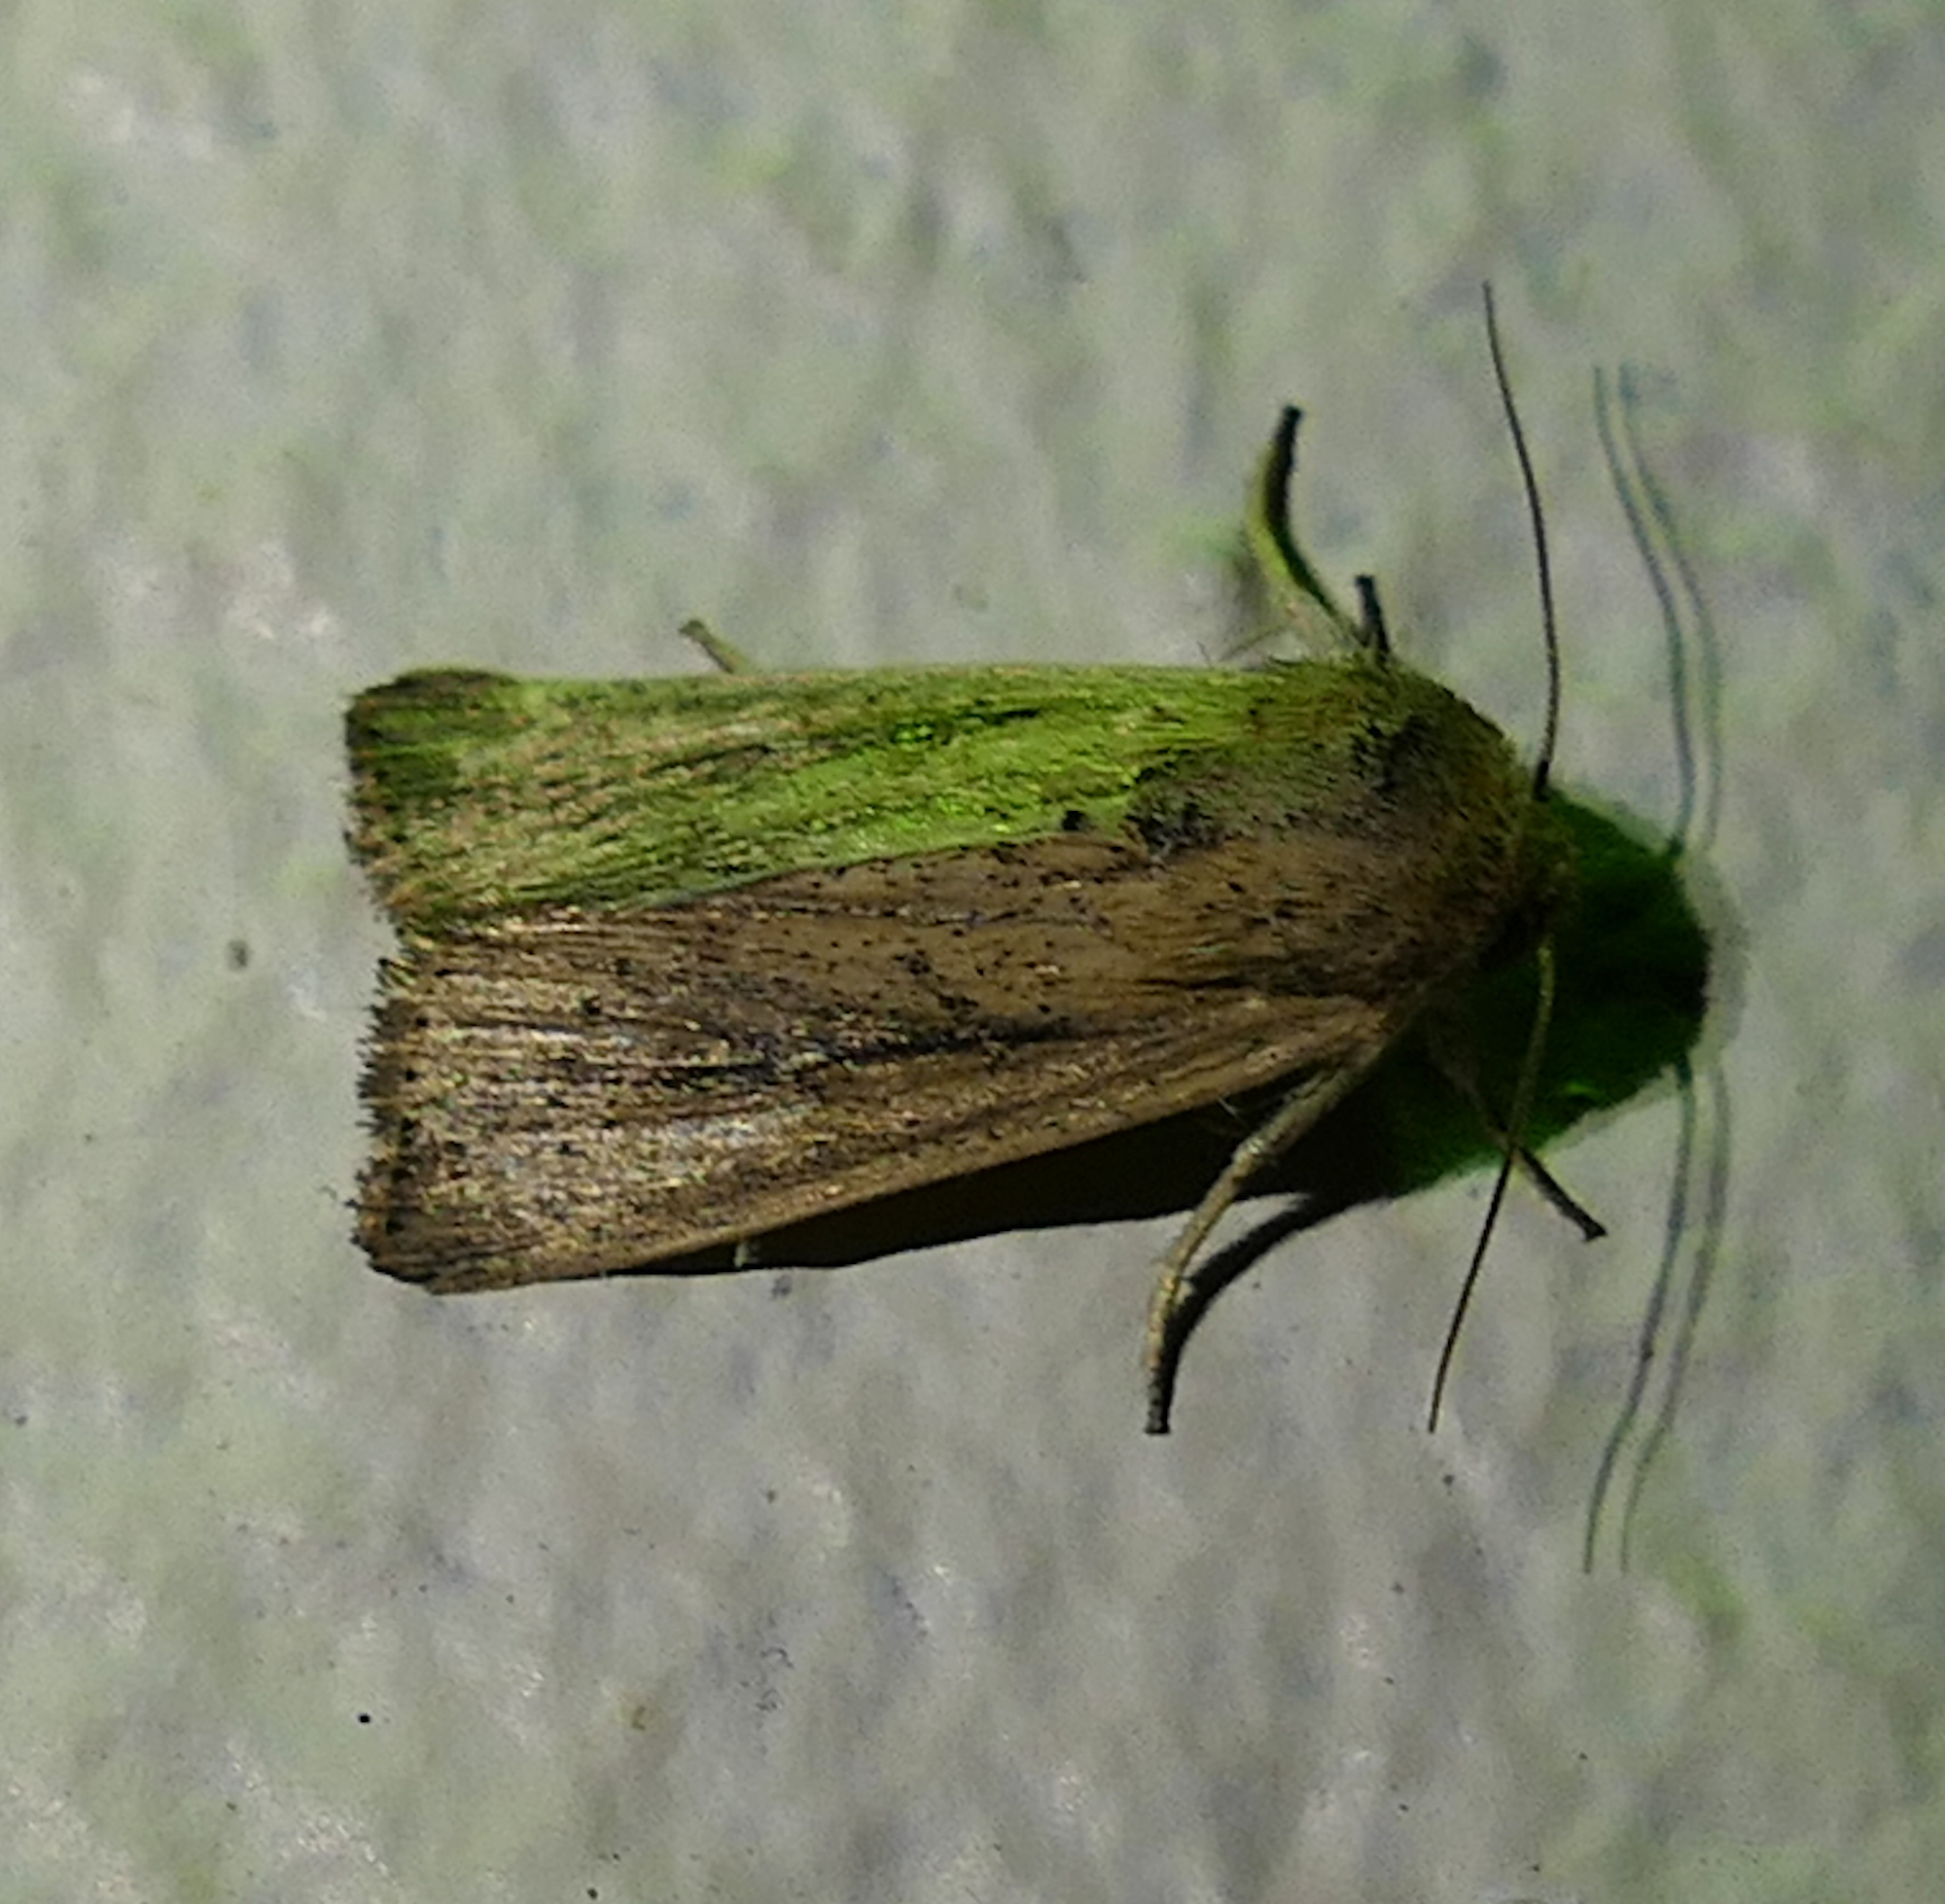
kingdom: Animalia
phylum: Arthropoda
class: Insecta
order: Lepidoptera
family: Noctuidae
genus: Leucania
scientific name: Leucania incognita
